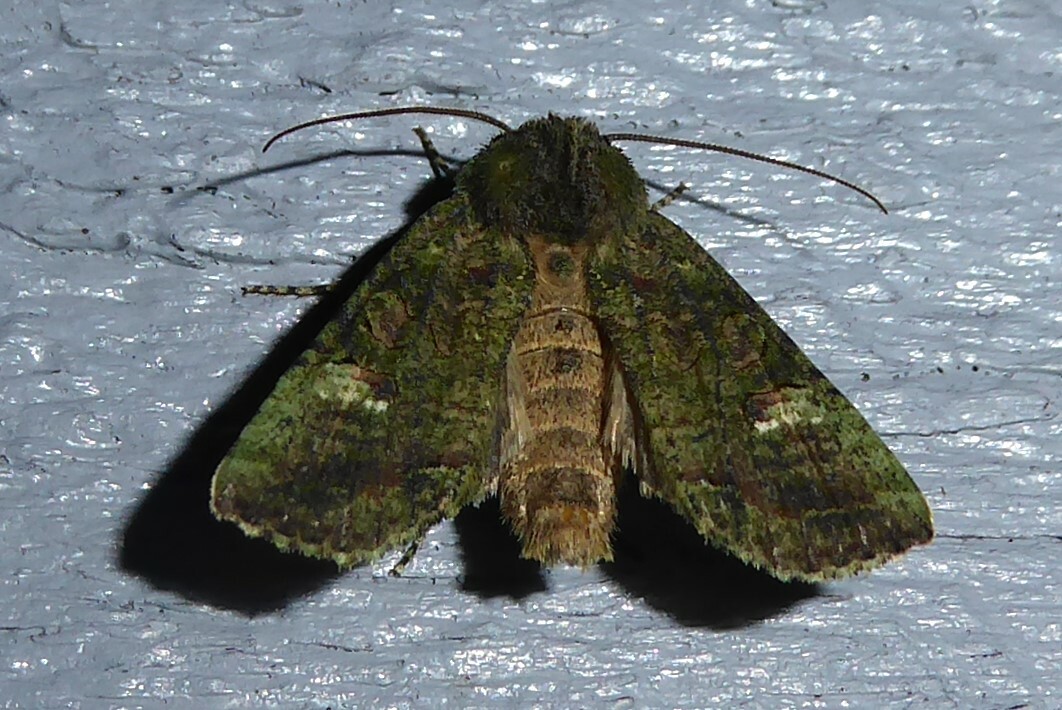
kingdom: Animalia
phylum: Arthropoda
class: Insecta
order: Lepidoptera
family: Noctuidae
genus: Meterana
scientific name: Meterana levis
